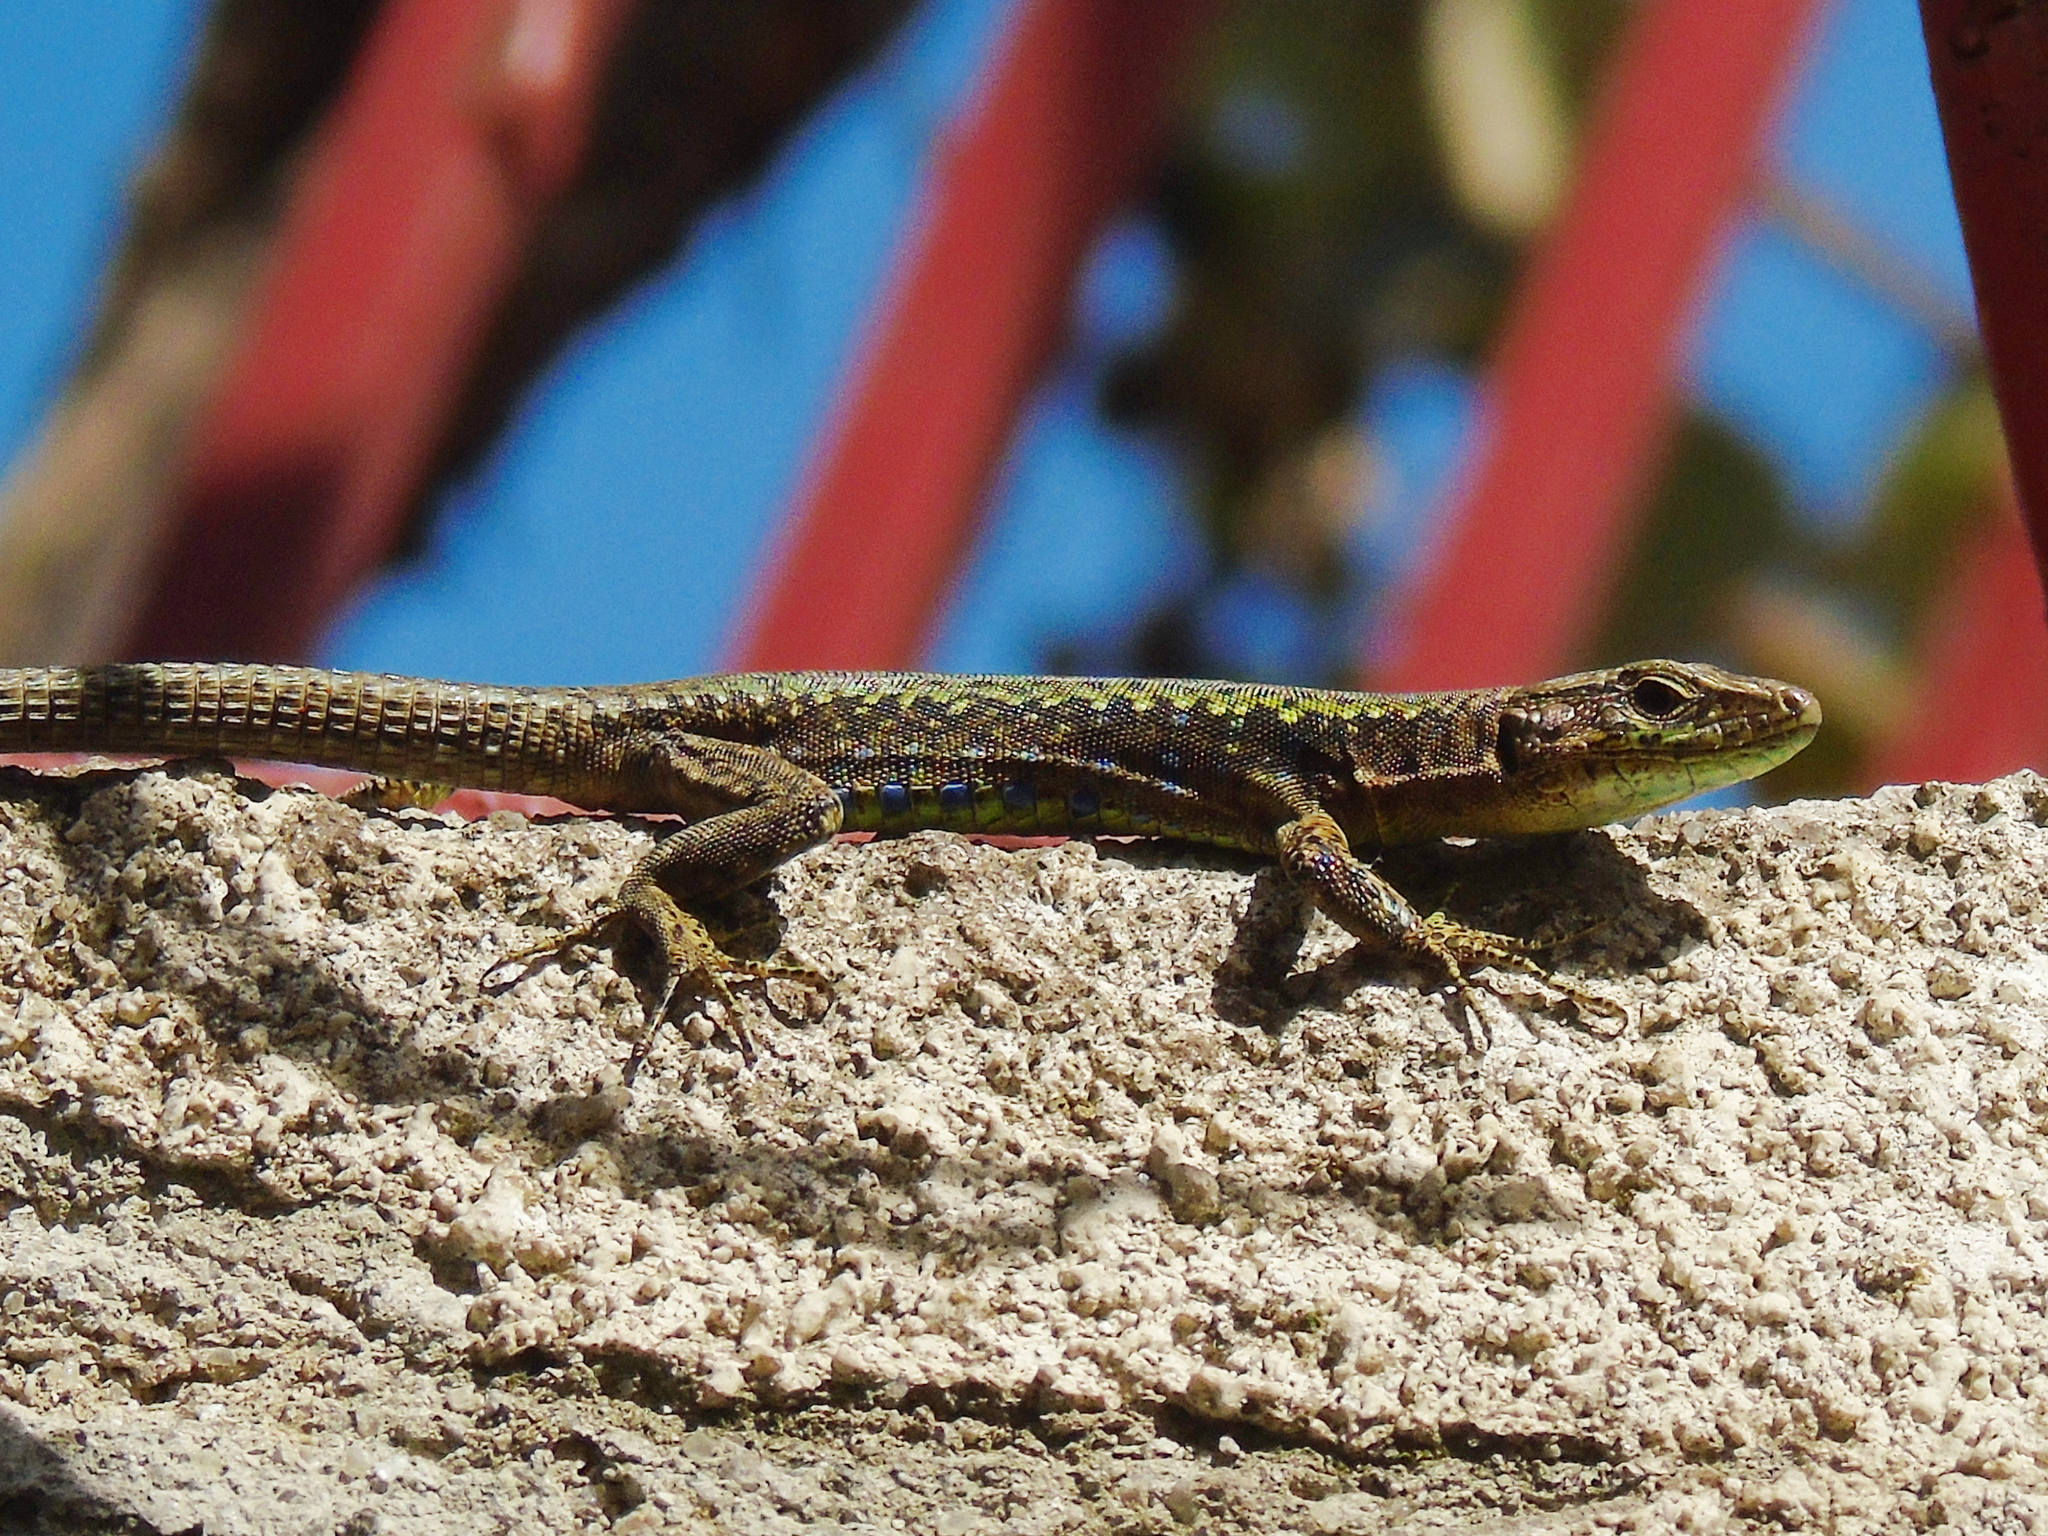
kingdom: Animalia
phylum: Chordata
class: Squamata
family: Lacertidae
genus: Darevskia
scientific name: Darevskia rudis
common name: Spiny-tailed lizard
